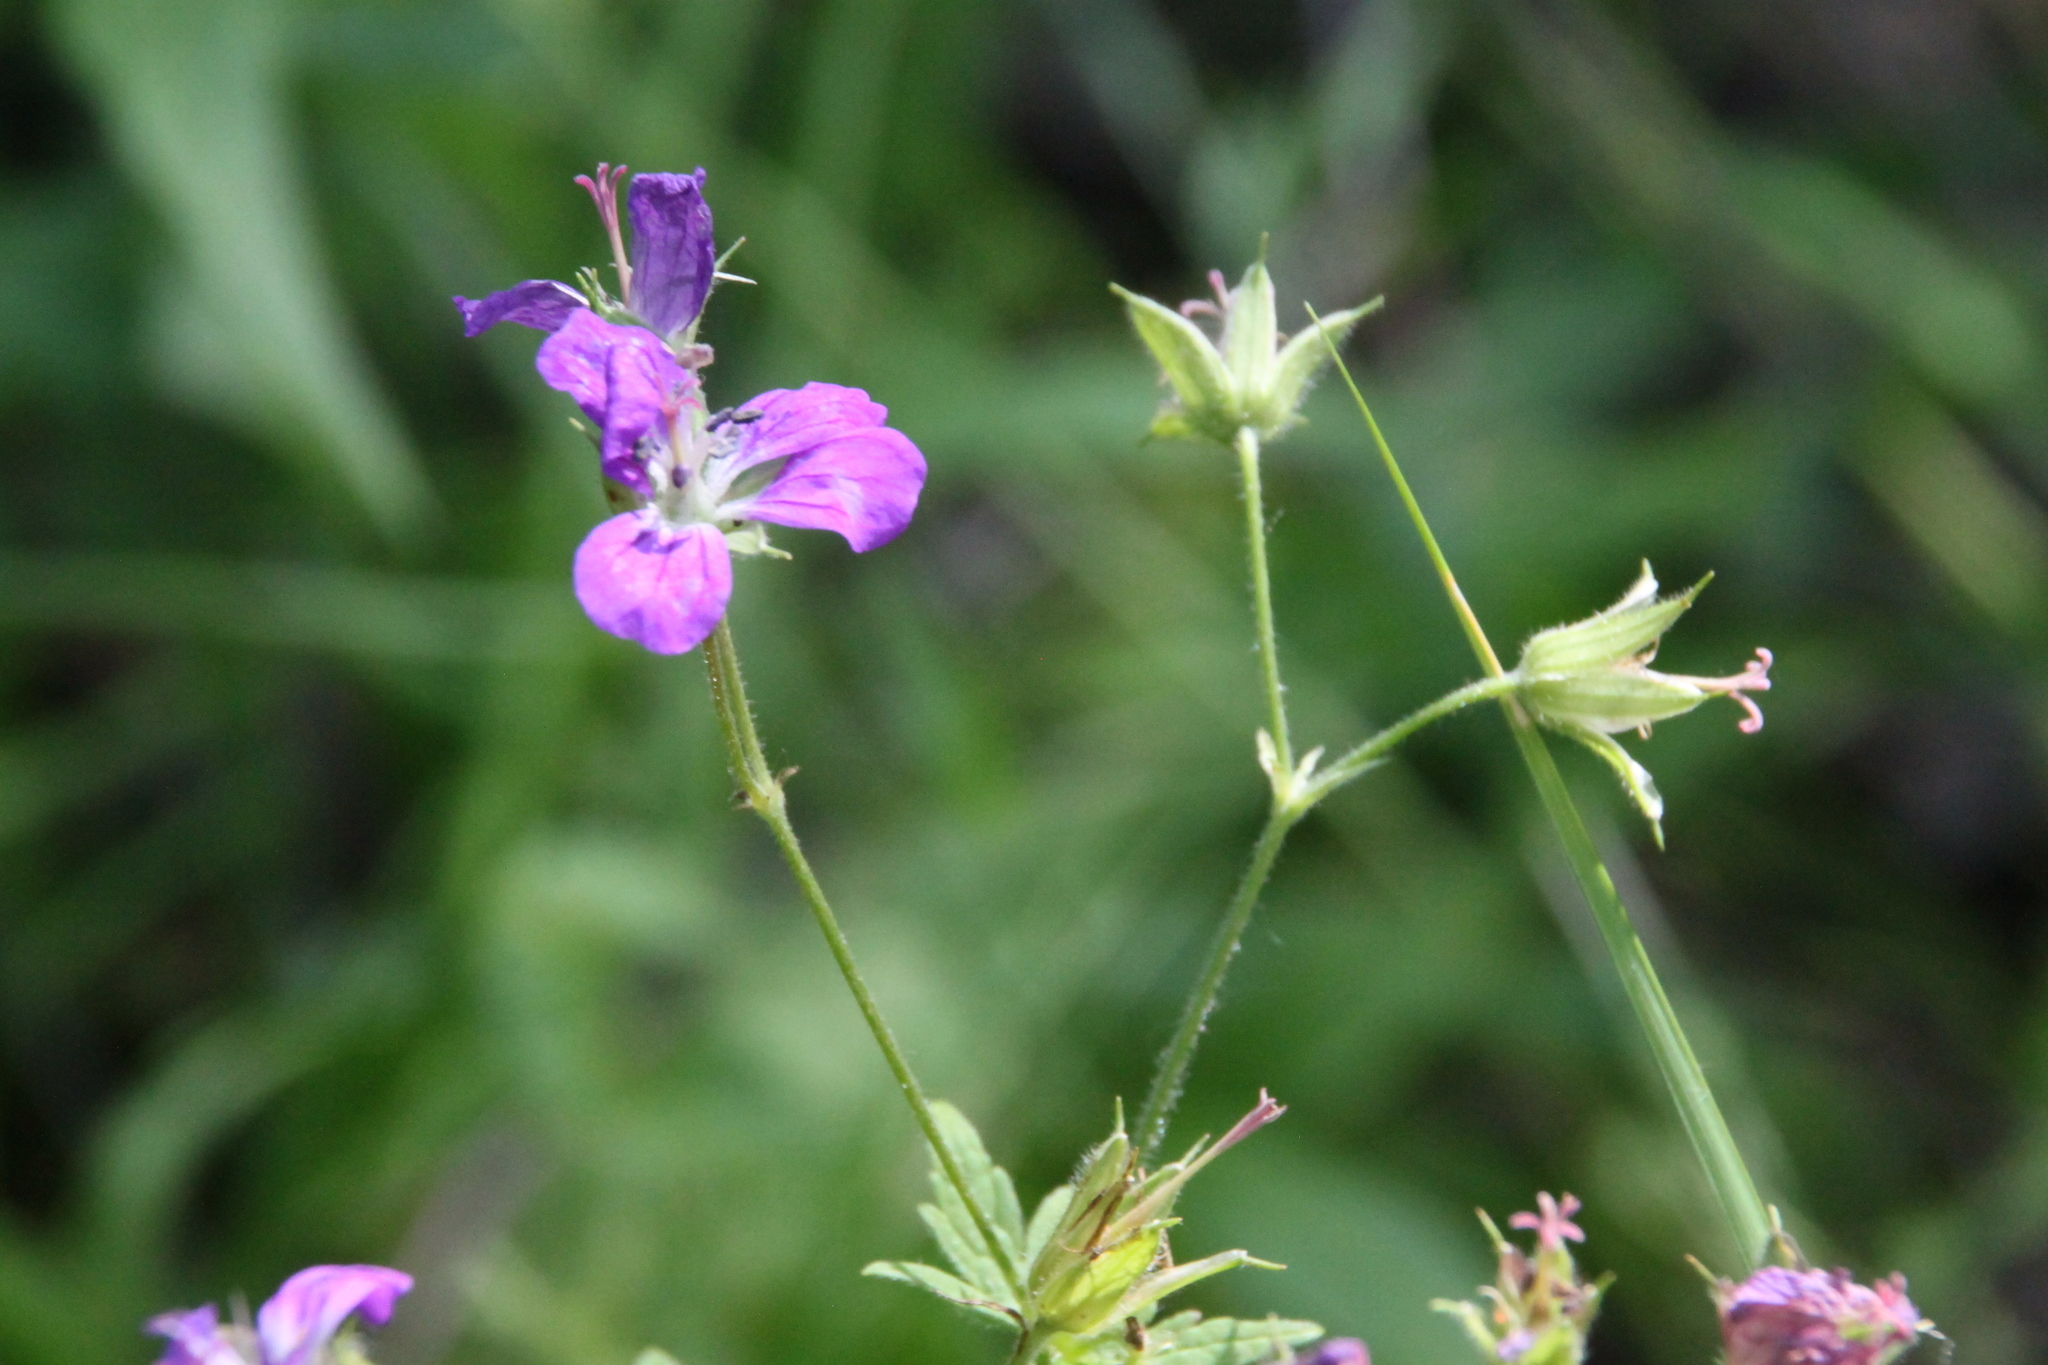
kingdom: Plantae
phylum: Tracheophyta
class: Magnoliopsida
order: Geraniales
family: Geraniaceae
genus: Geranium
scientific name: Geranium sylvaticum
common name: Wood crane's-bill
